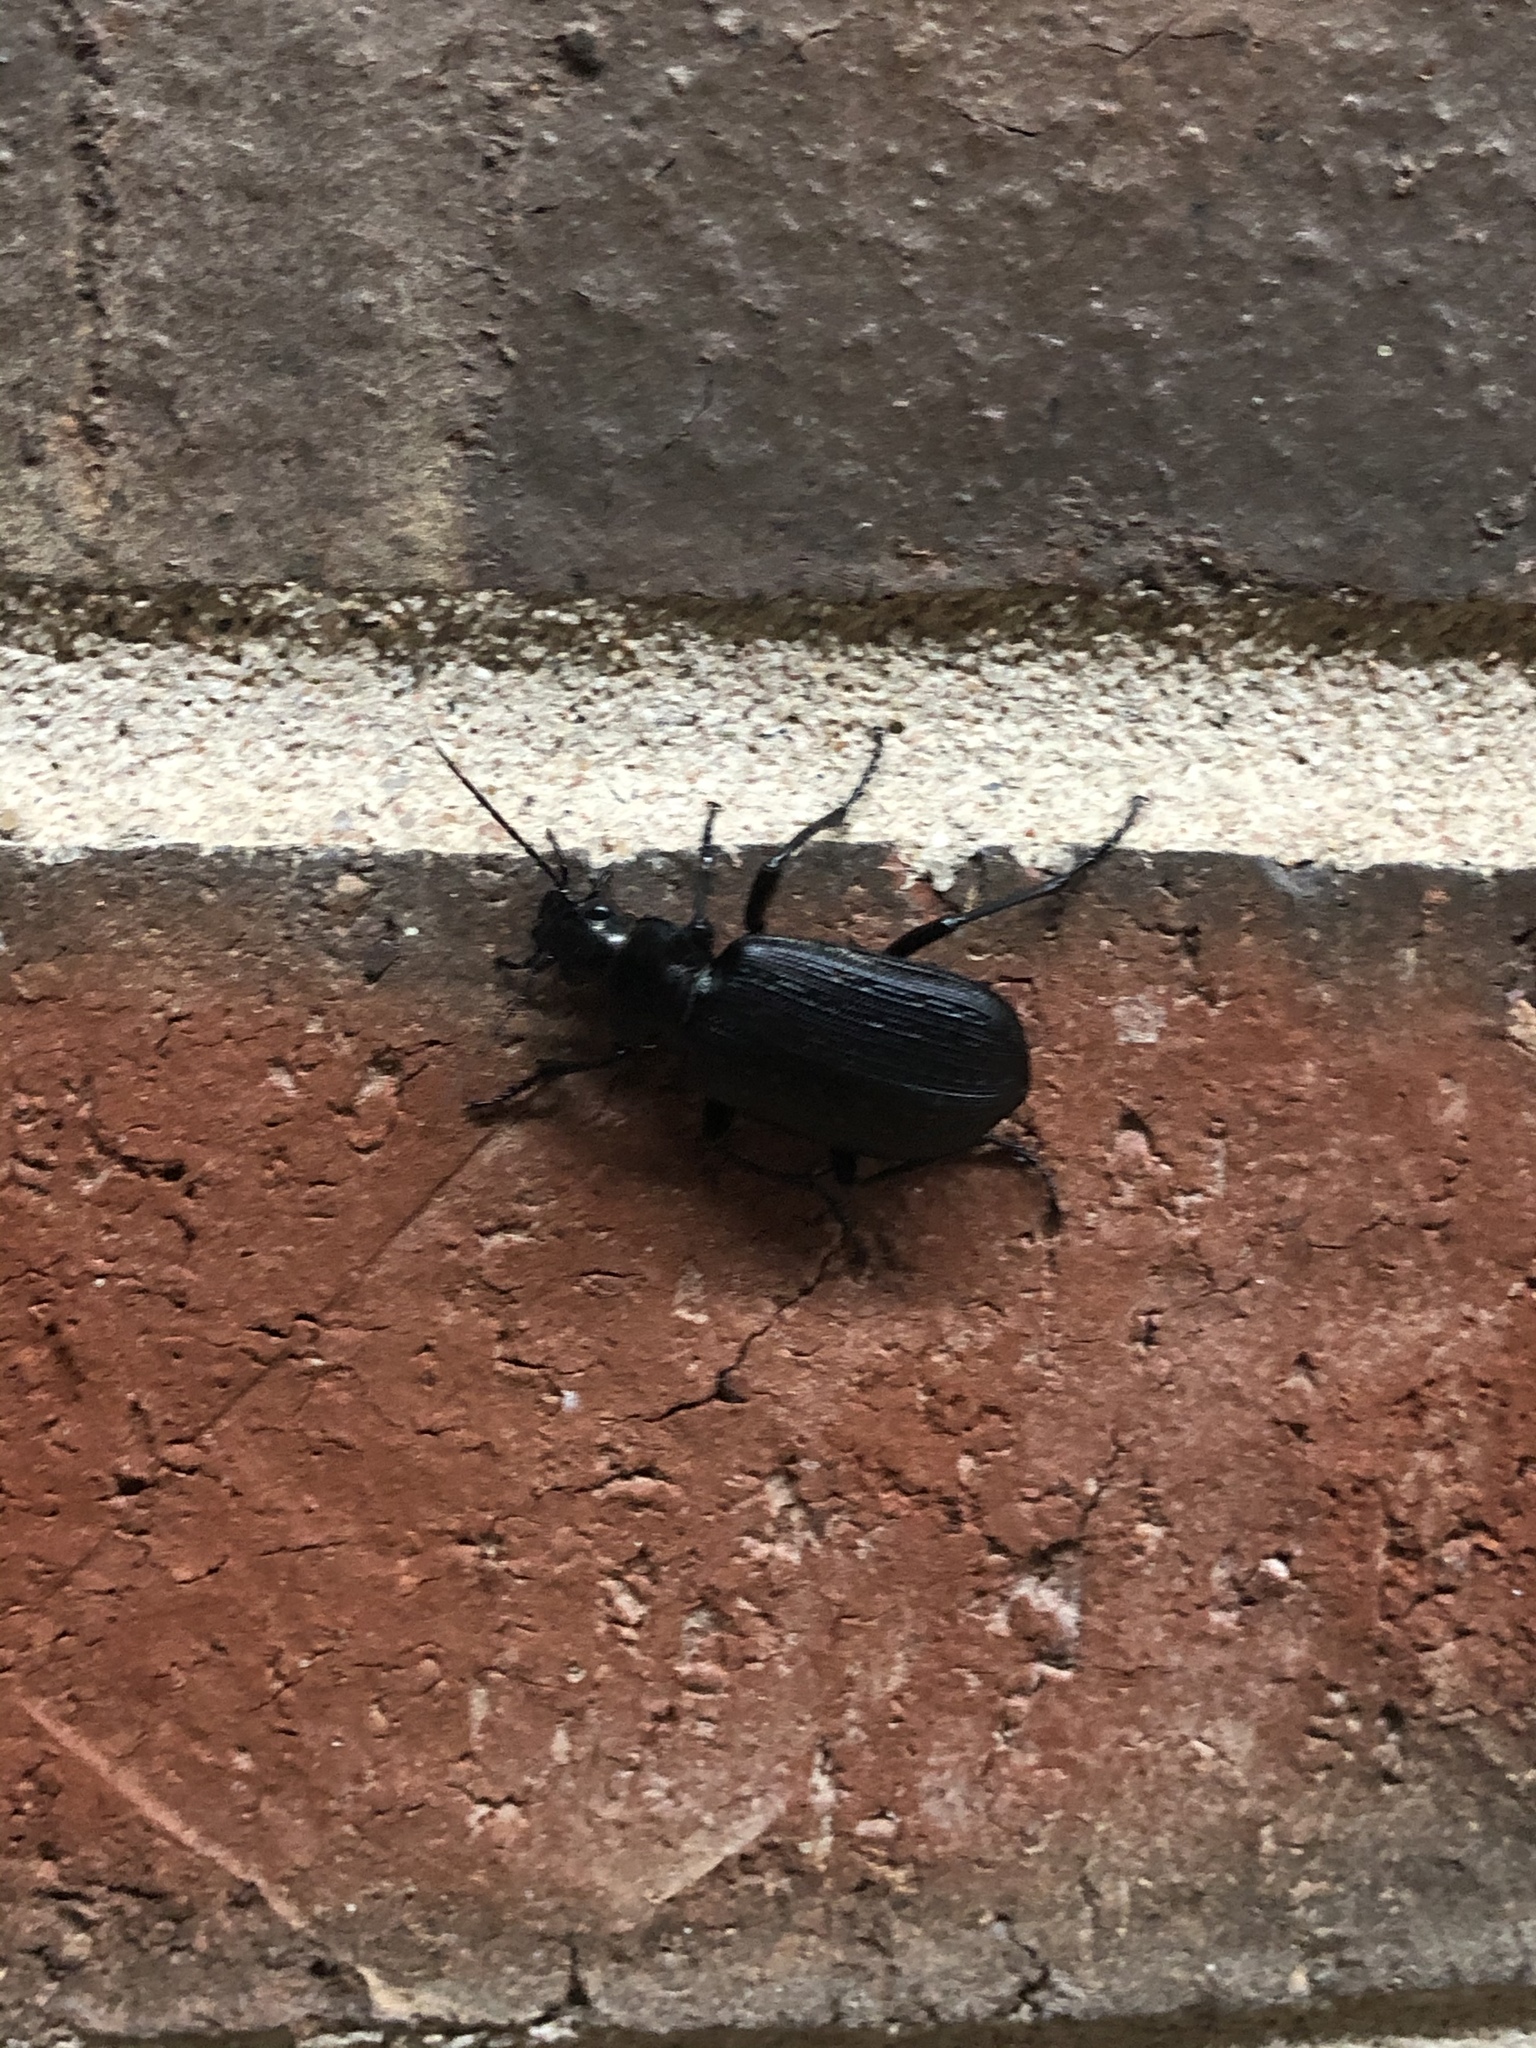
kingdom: Animalia
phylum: Arthropoda
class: Insecta
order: Coleoptera
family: Carabidae
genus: Calosoma
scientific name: Calosoma sayi
